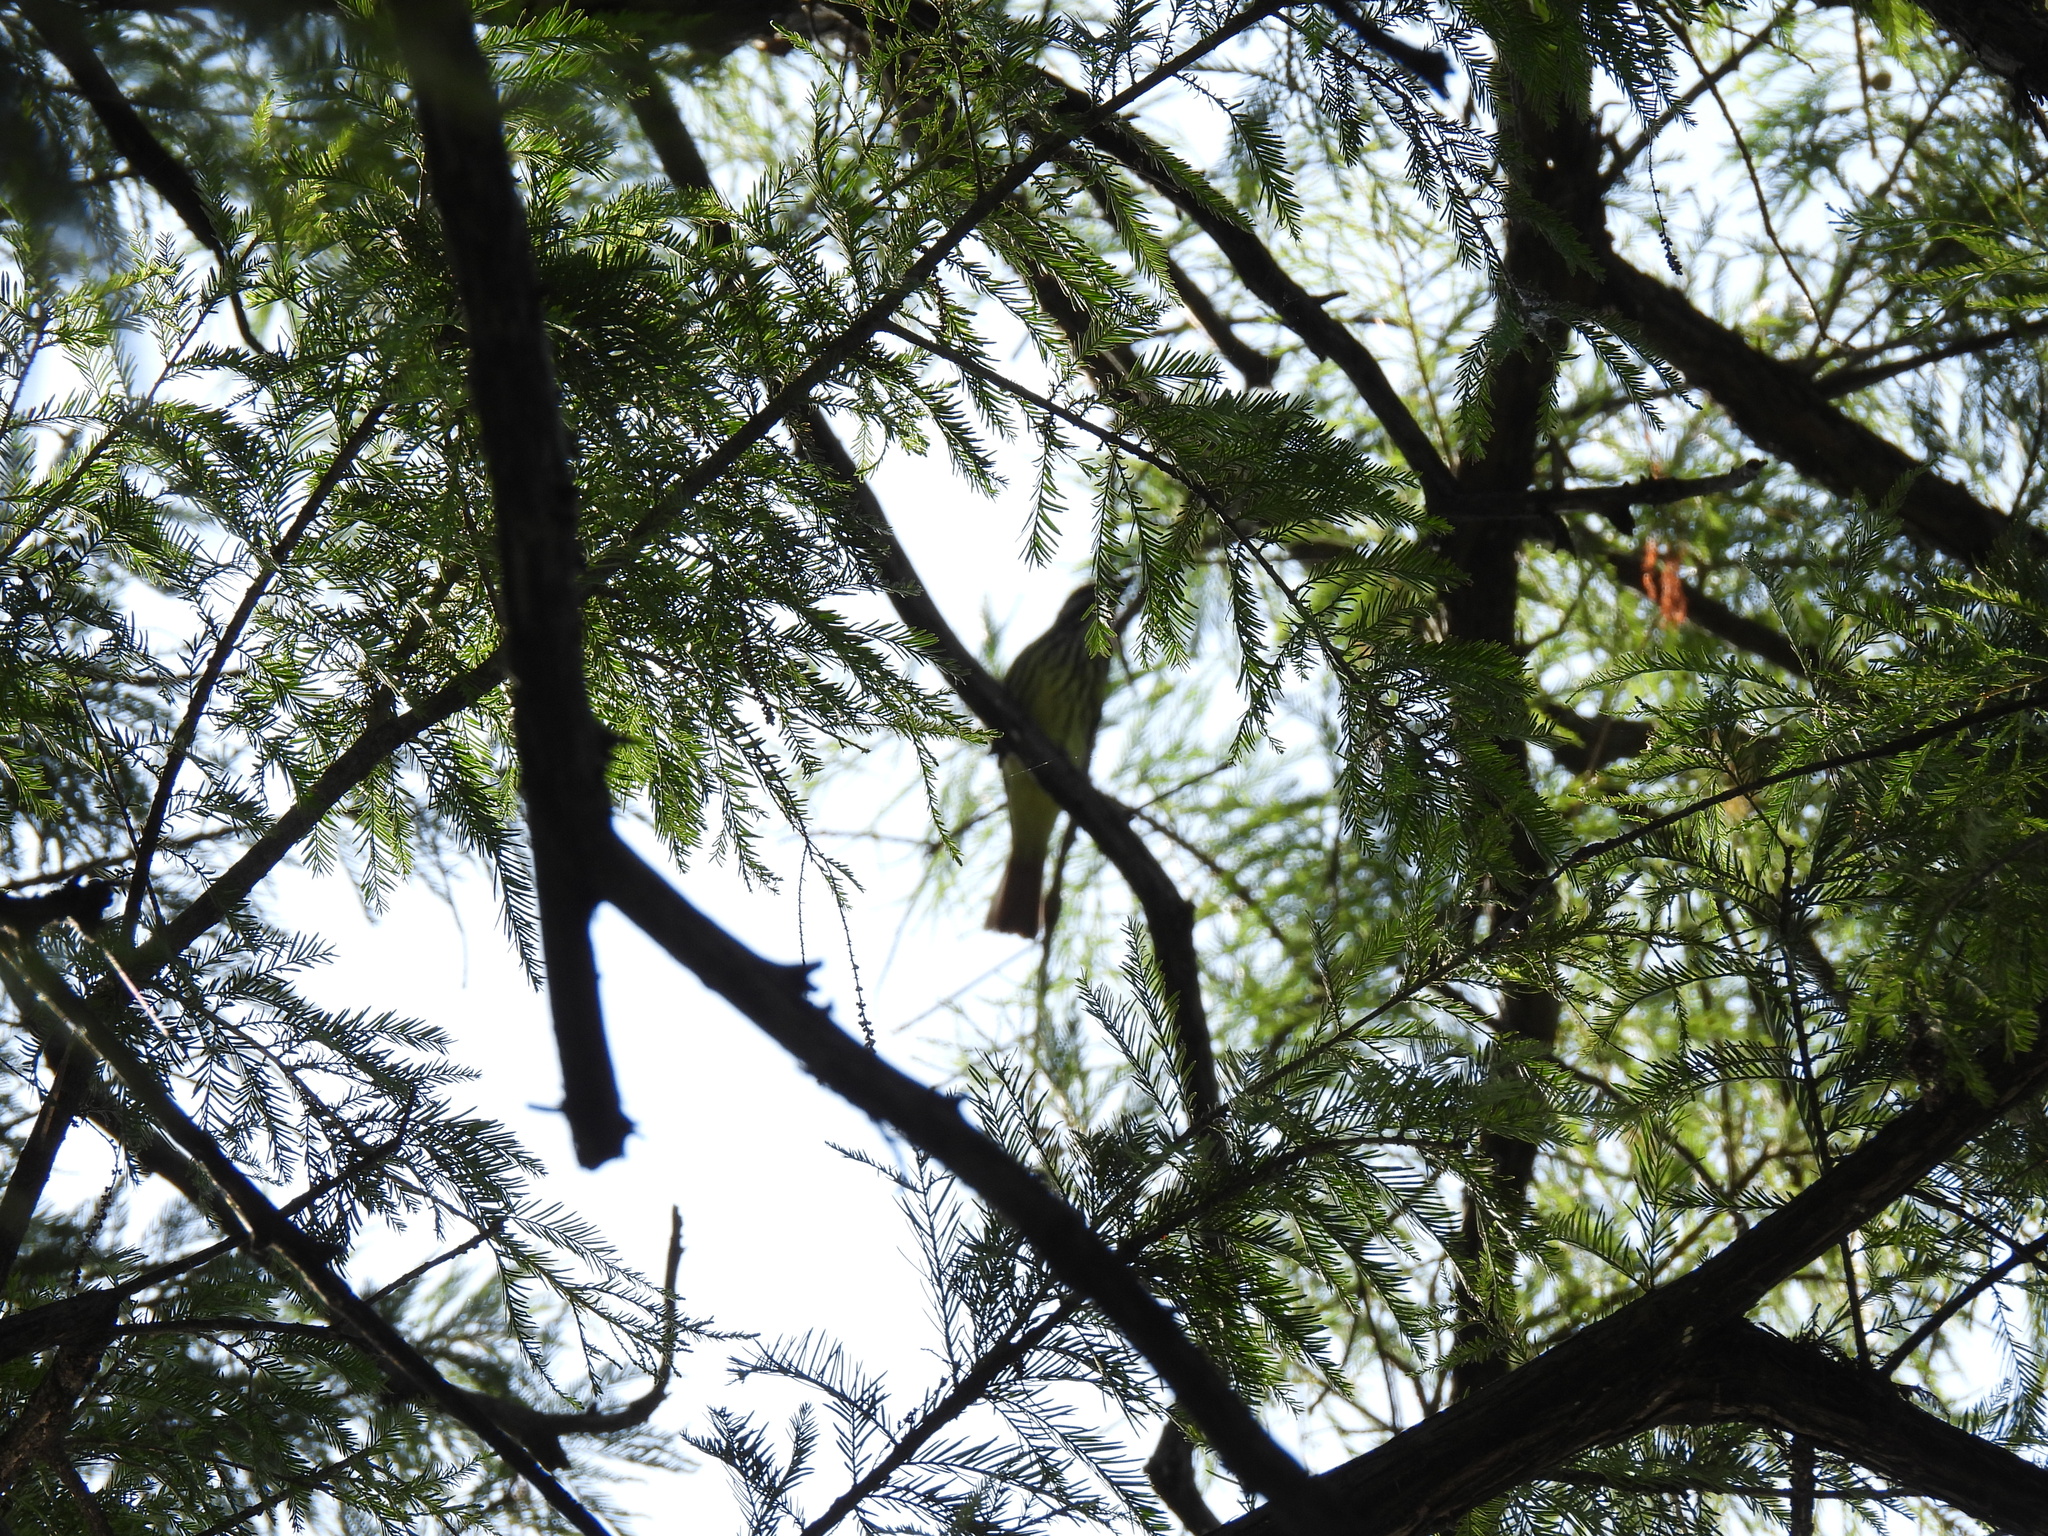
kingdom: Animalia
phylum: Chordata
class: Aves
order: Passeriformes
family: Tyrannidae
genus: Myiodynastes
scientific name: Myiodynastes luteiventris
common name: Sulphur-bellied flycatcher
